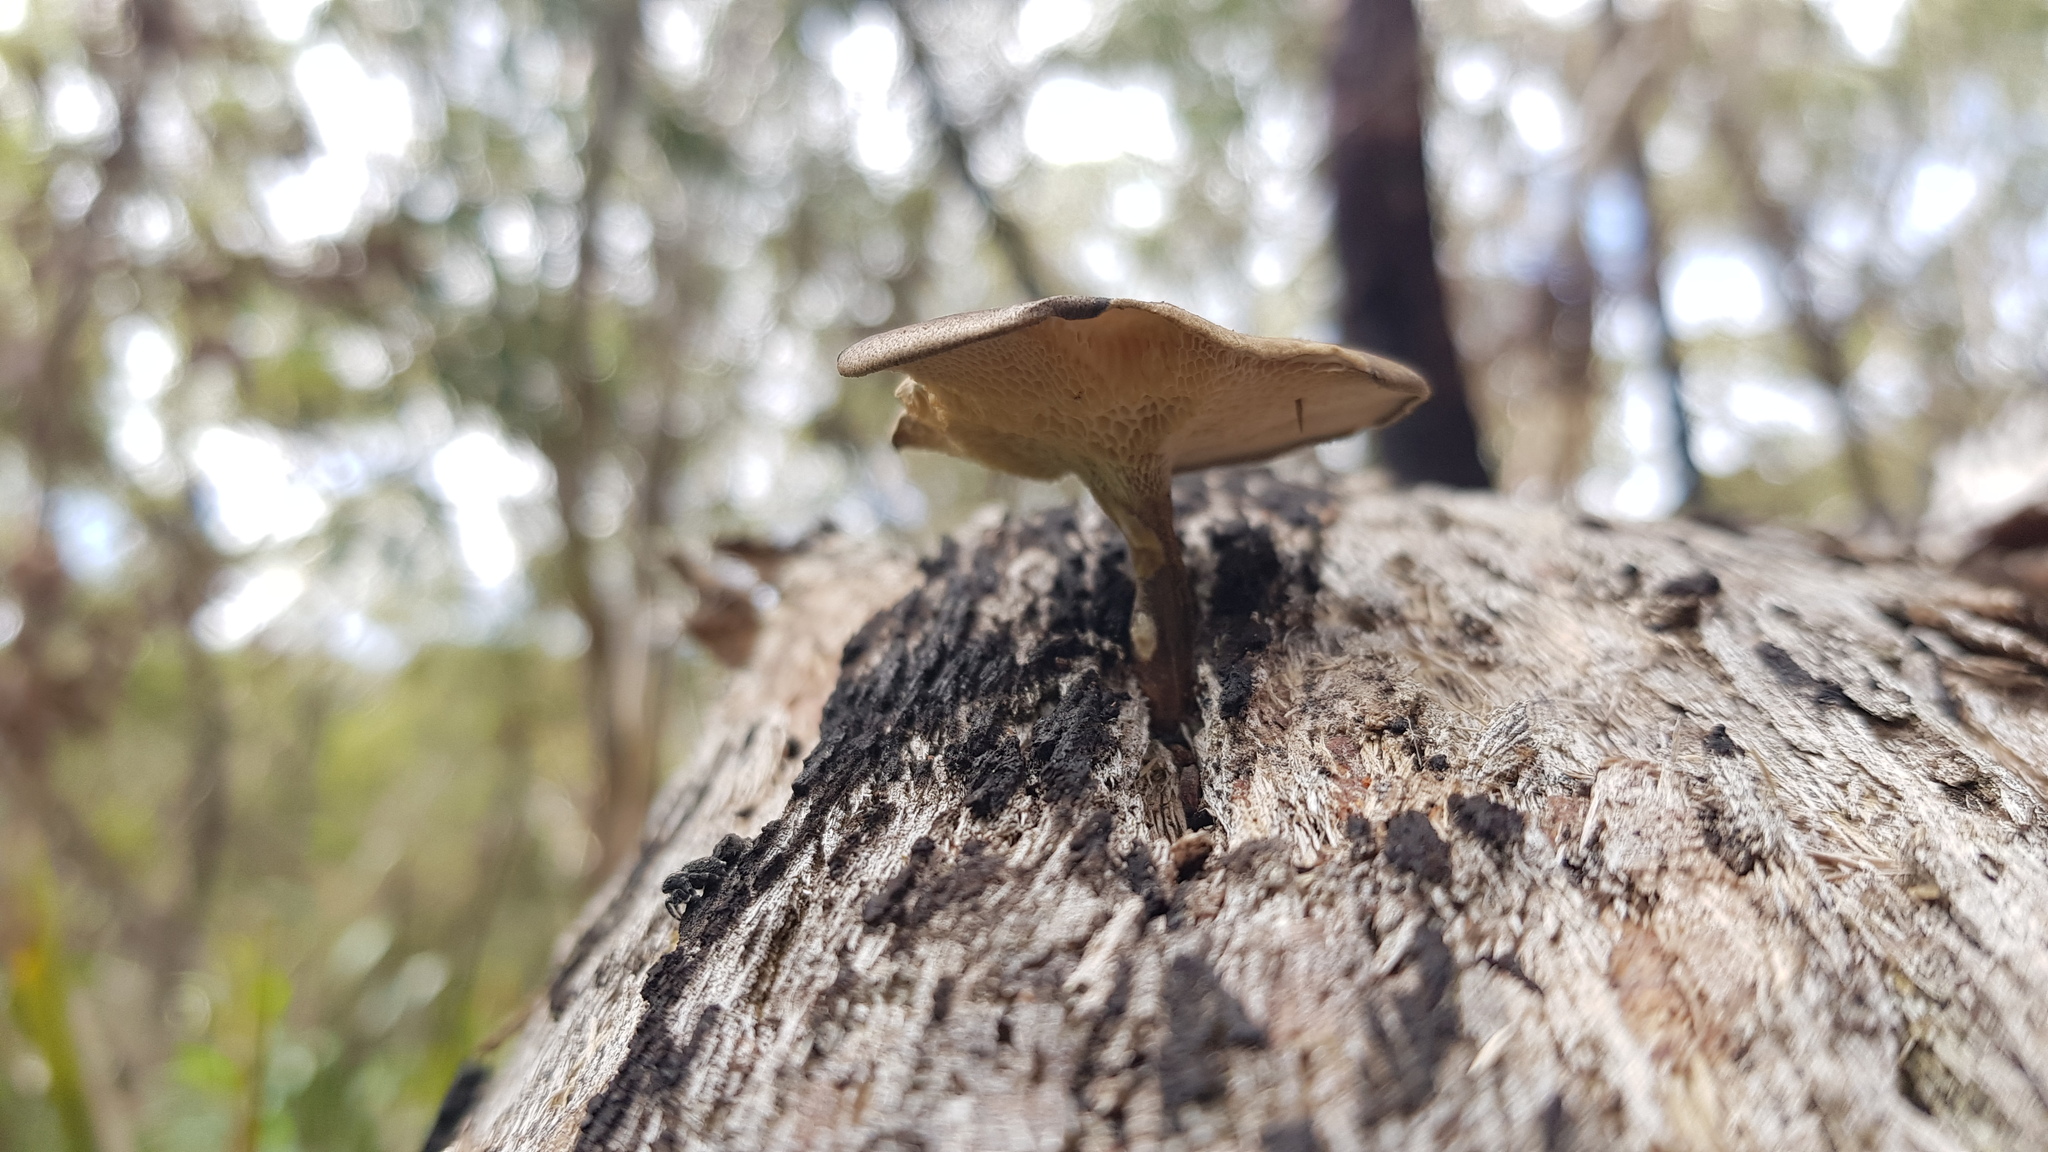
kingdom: Fungi
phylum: Basidiomycota
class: Agaricomycetes
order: Polyporales
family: Polyporaceae
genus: Lentinus
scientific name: Lentinus arcularius
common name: Spring polypore
